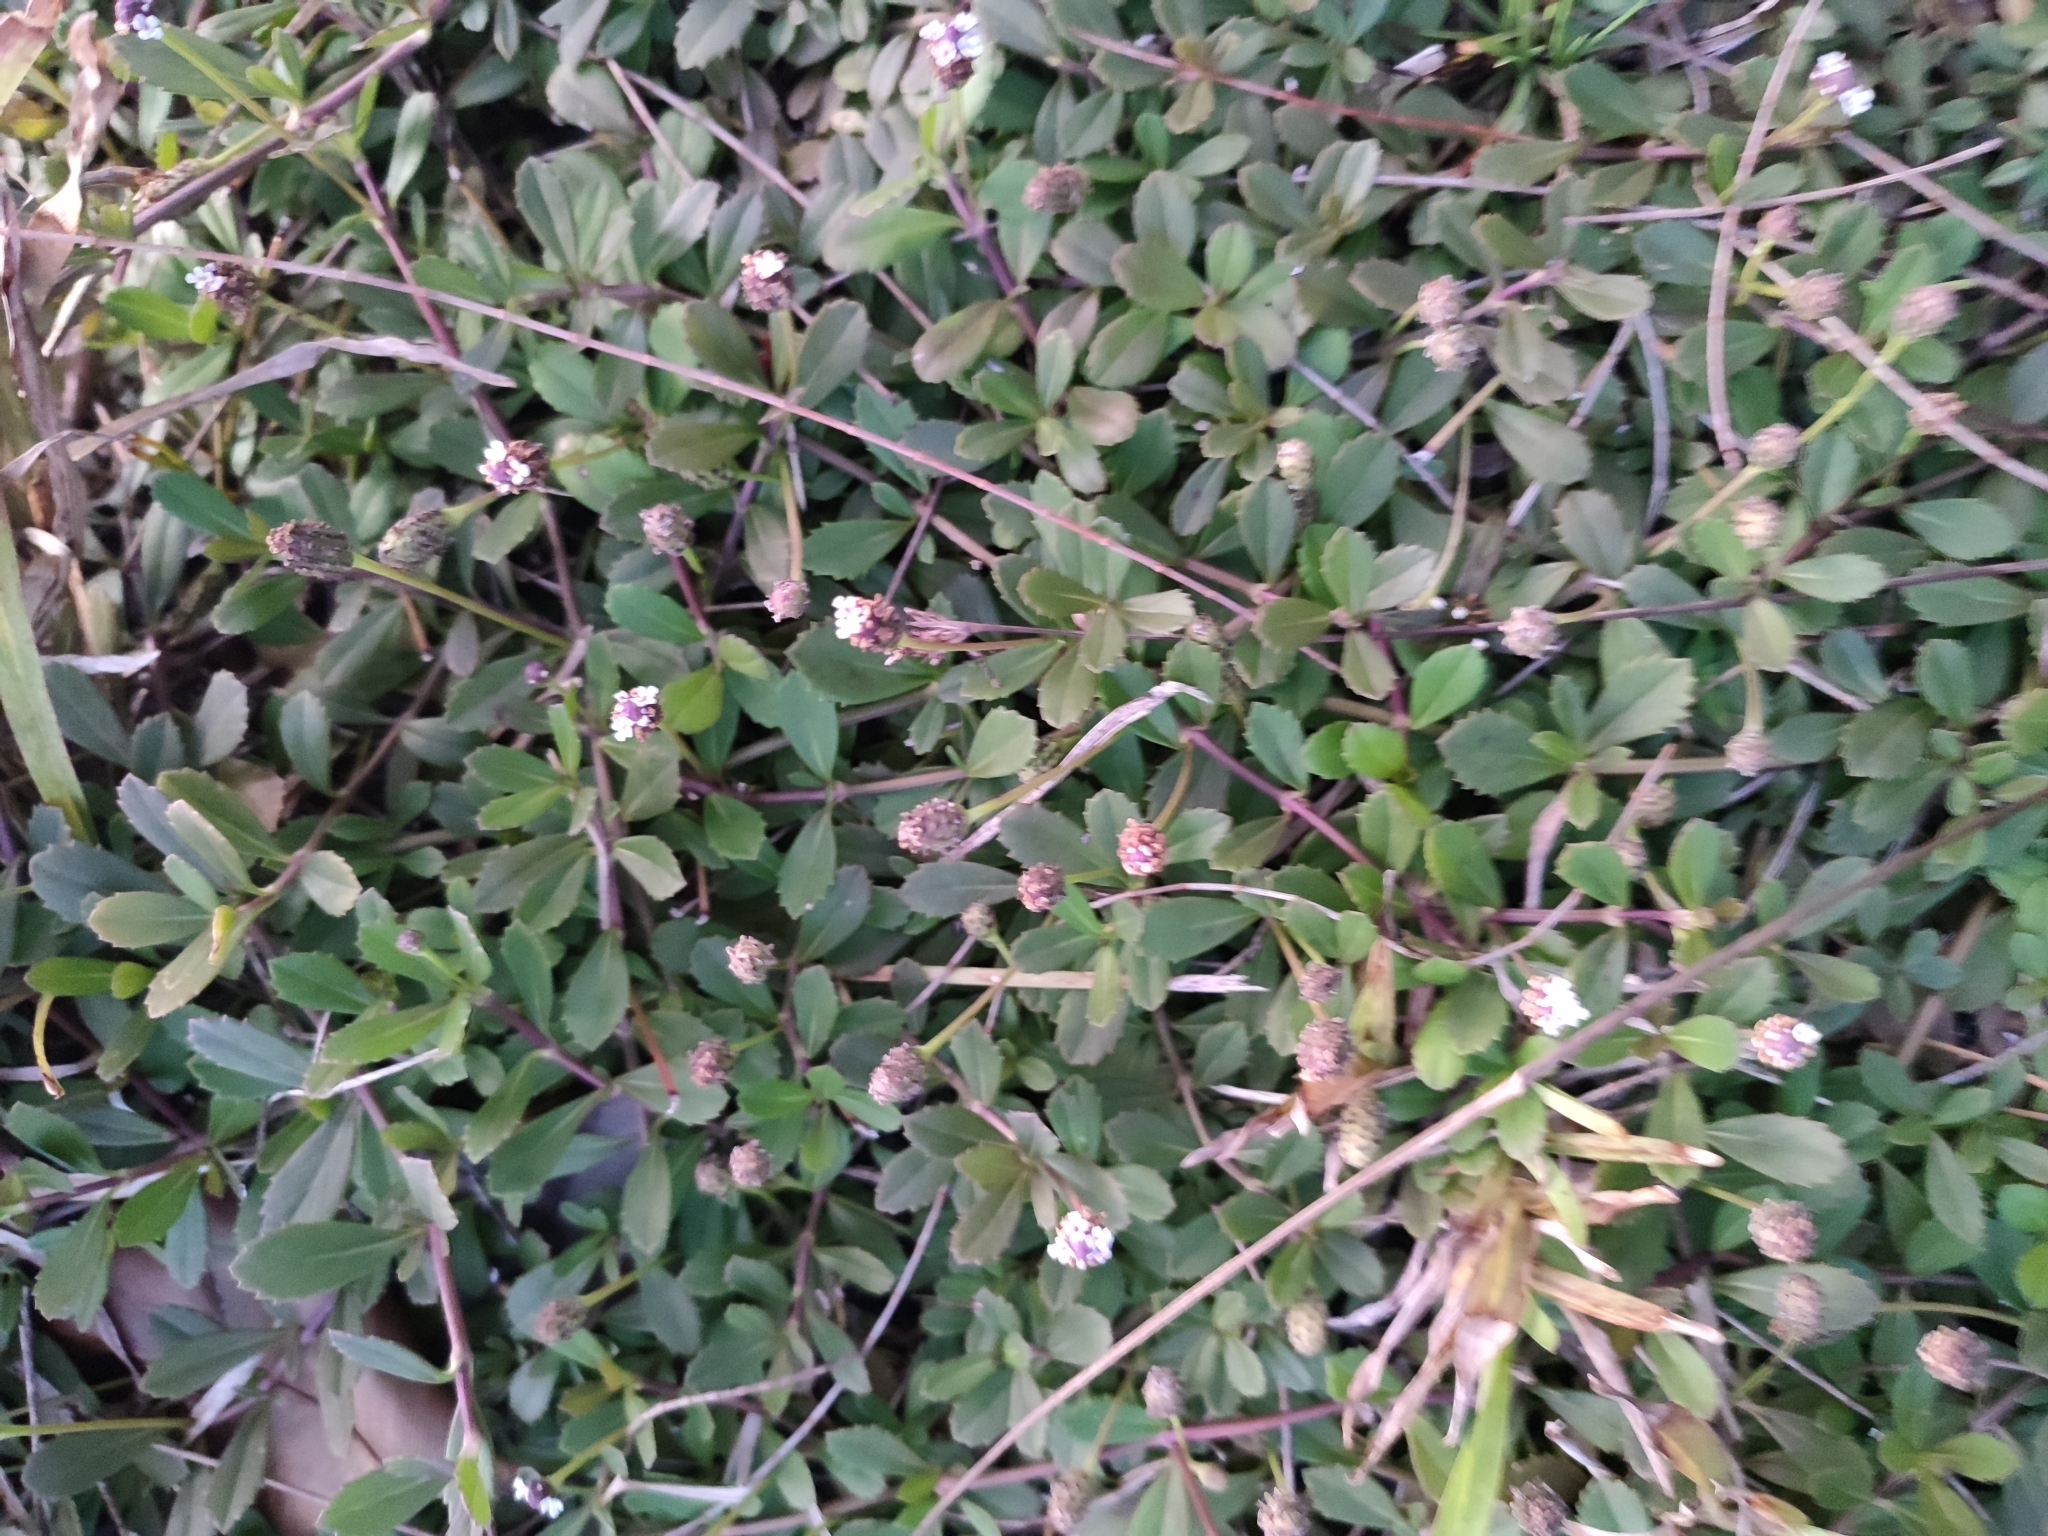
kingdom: Plantae
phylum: Tracheophyta
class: Magnoliopsida
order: Lamiales
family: Verbenaceae
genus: Phyla
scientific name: Phyla nodiflora
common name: Frogfruit
